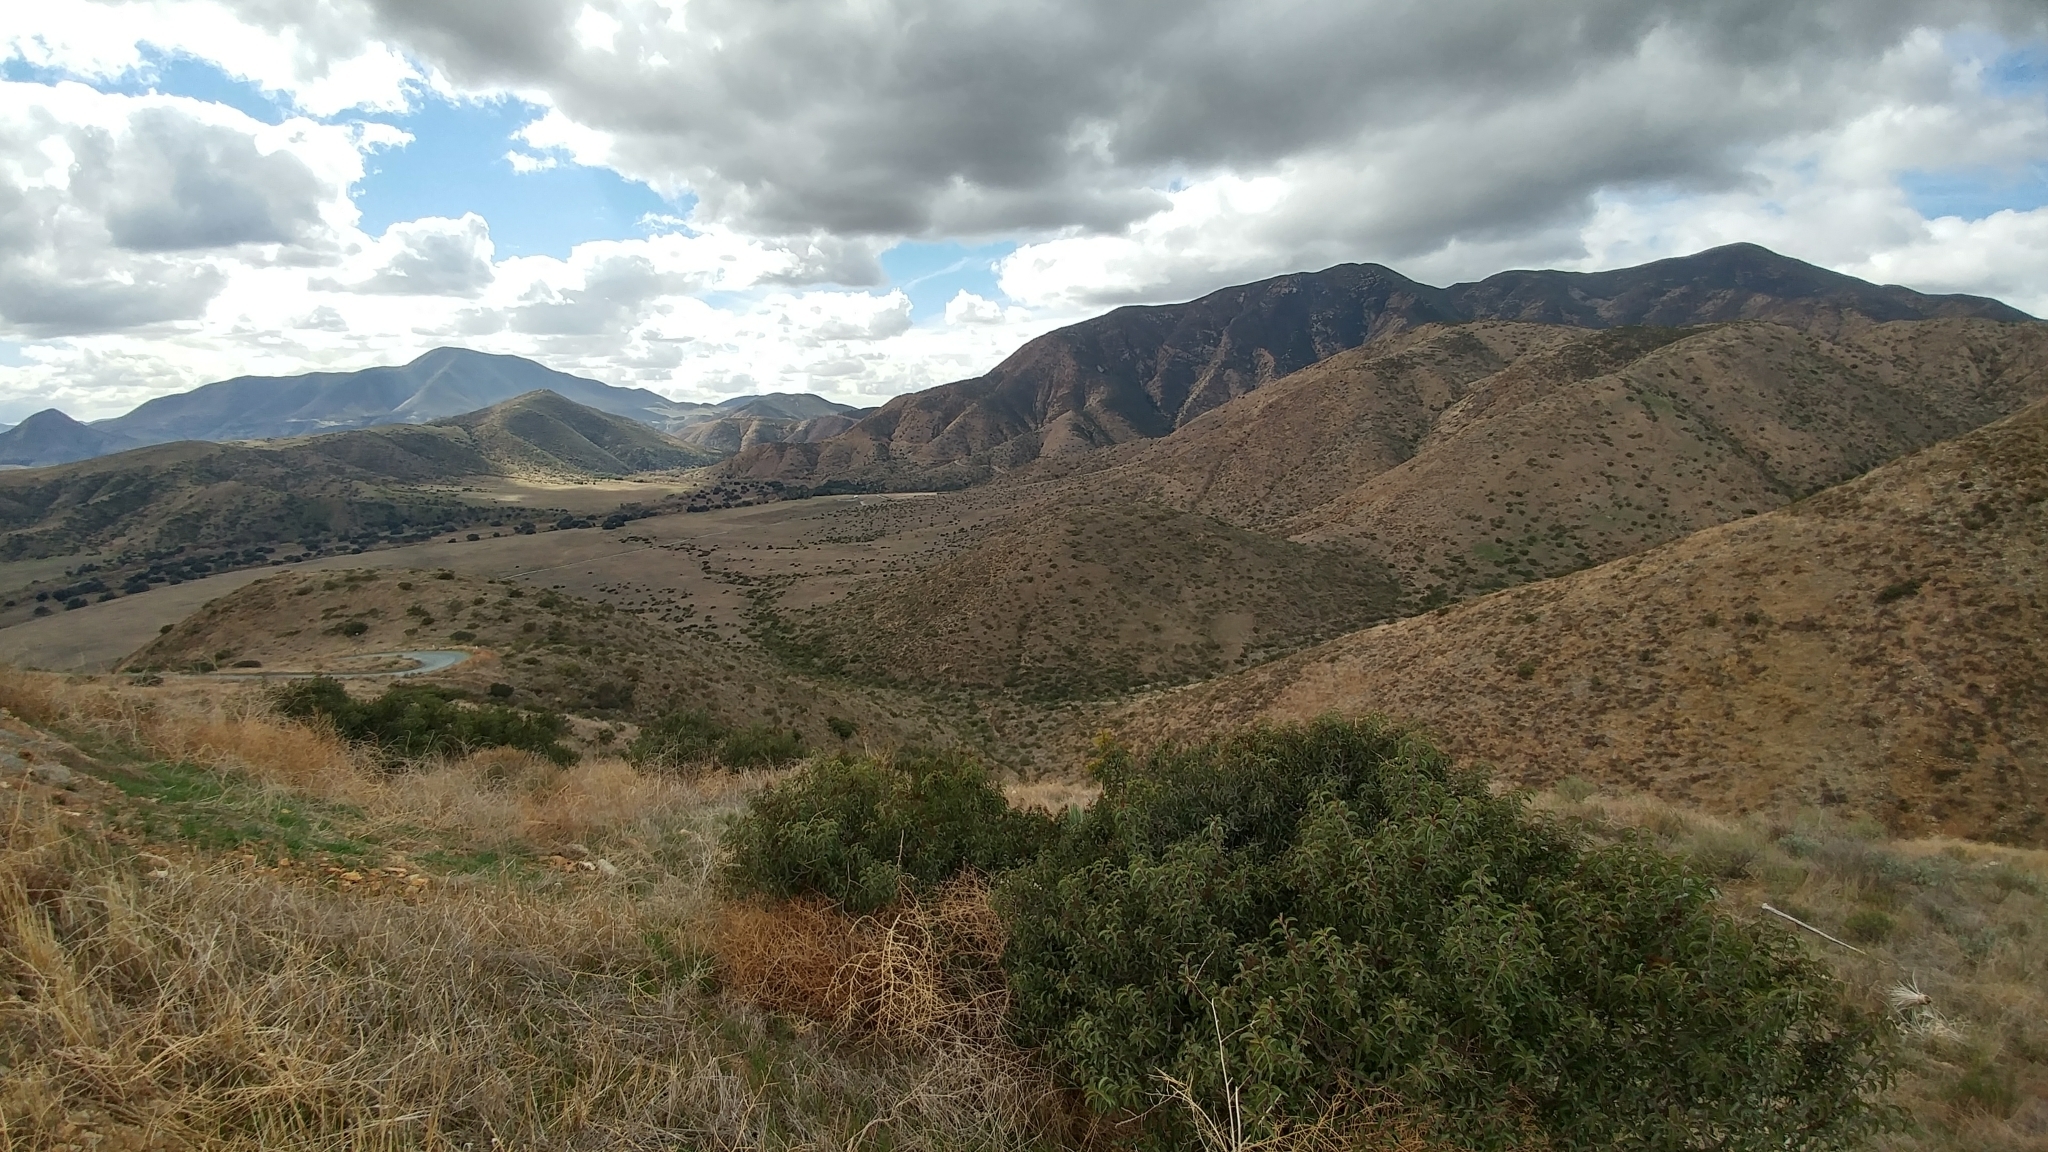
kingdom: Plantae
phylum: Tracheophyta
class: Magnoliopsida
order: Sapindales
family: Anacardiaceae
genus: Malosma
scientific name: Malosma laurina
